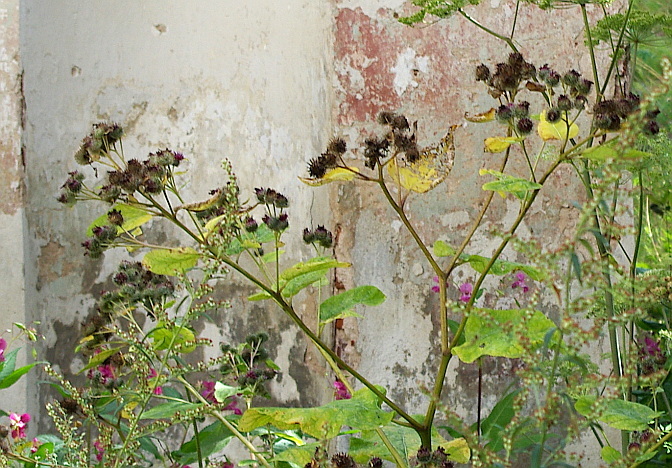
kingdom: Plantae
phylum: Tracheophyta
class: Magnoliopsida
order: Asterales
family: Asteraceae
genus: Arctium
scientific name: Arctium tomentosum
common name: Woolly burdock
